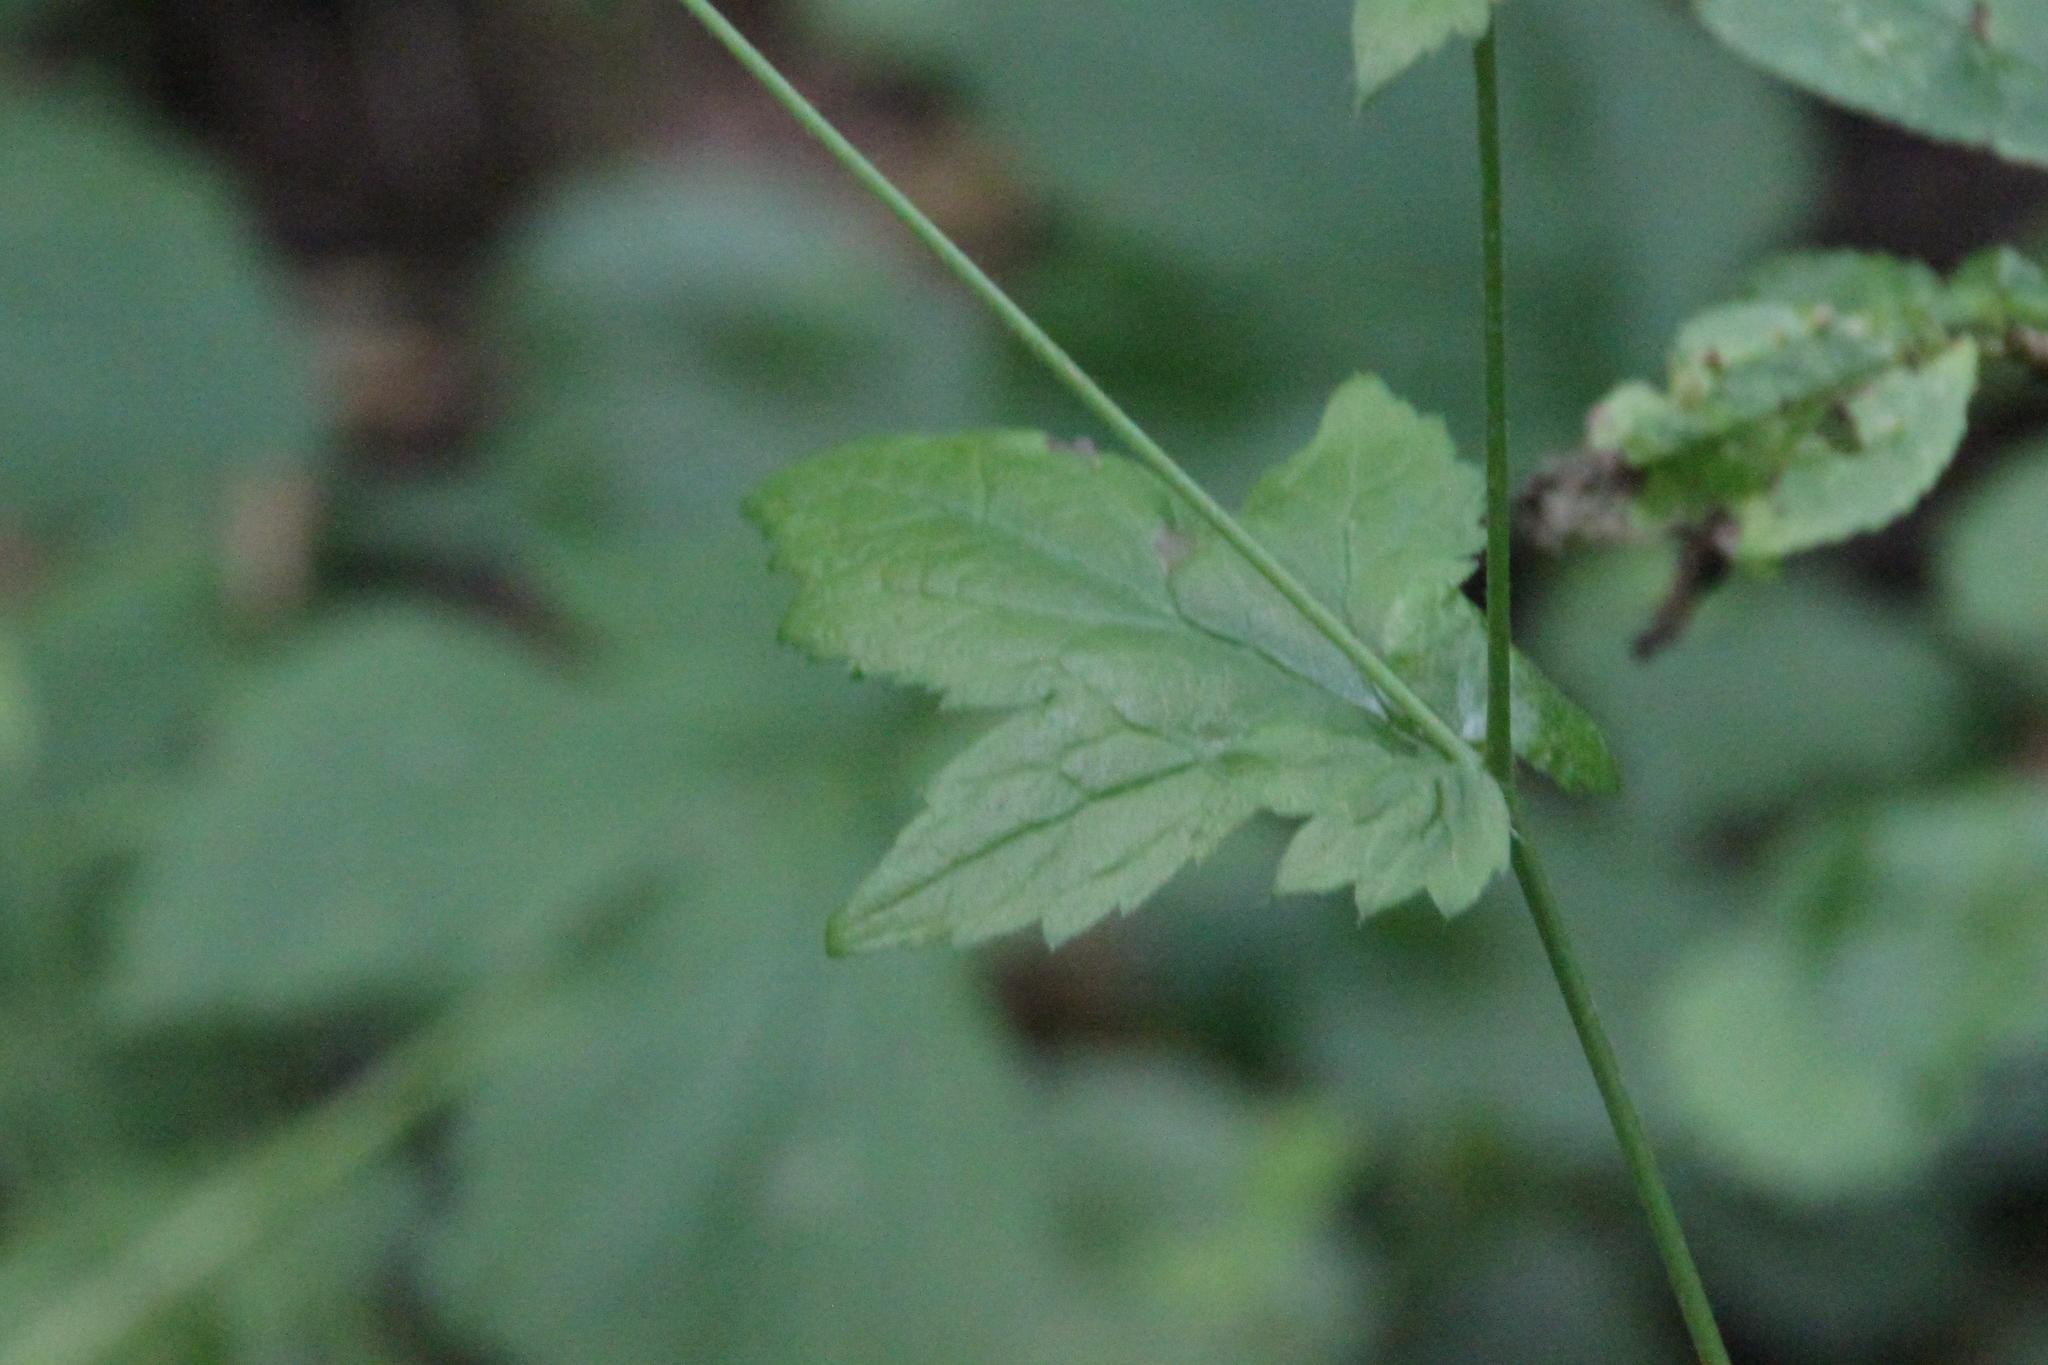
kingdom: Plantae
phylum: Tracheophyta
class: Magnoliopsida
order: Rosales
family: Rosaceae
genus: Geum
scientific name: Geum urbanum
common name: Wood avens
